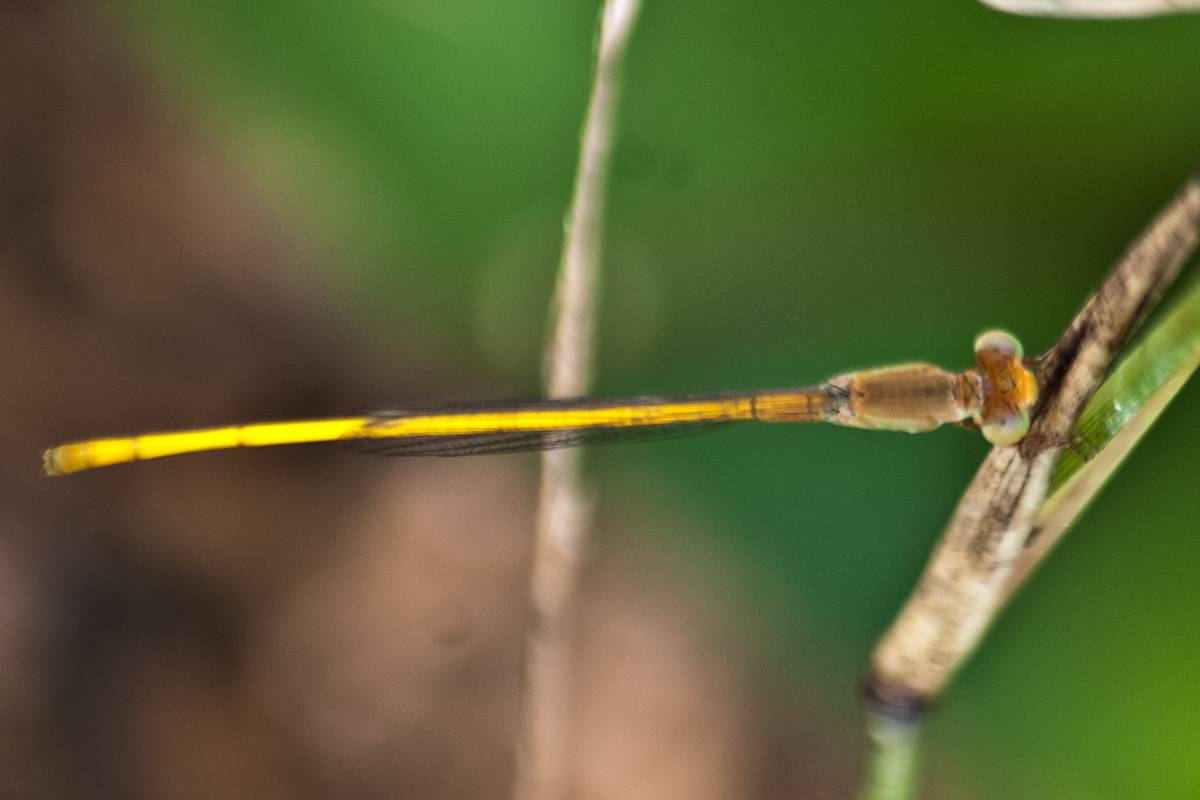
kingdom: Animalia
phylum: Arthropoda
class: Insecta
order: Odonata
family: Coenagrionidae
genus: Ceriagrion
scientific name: Ceriagrion calamineum
